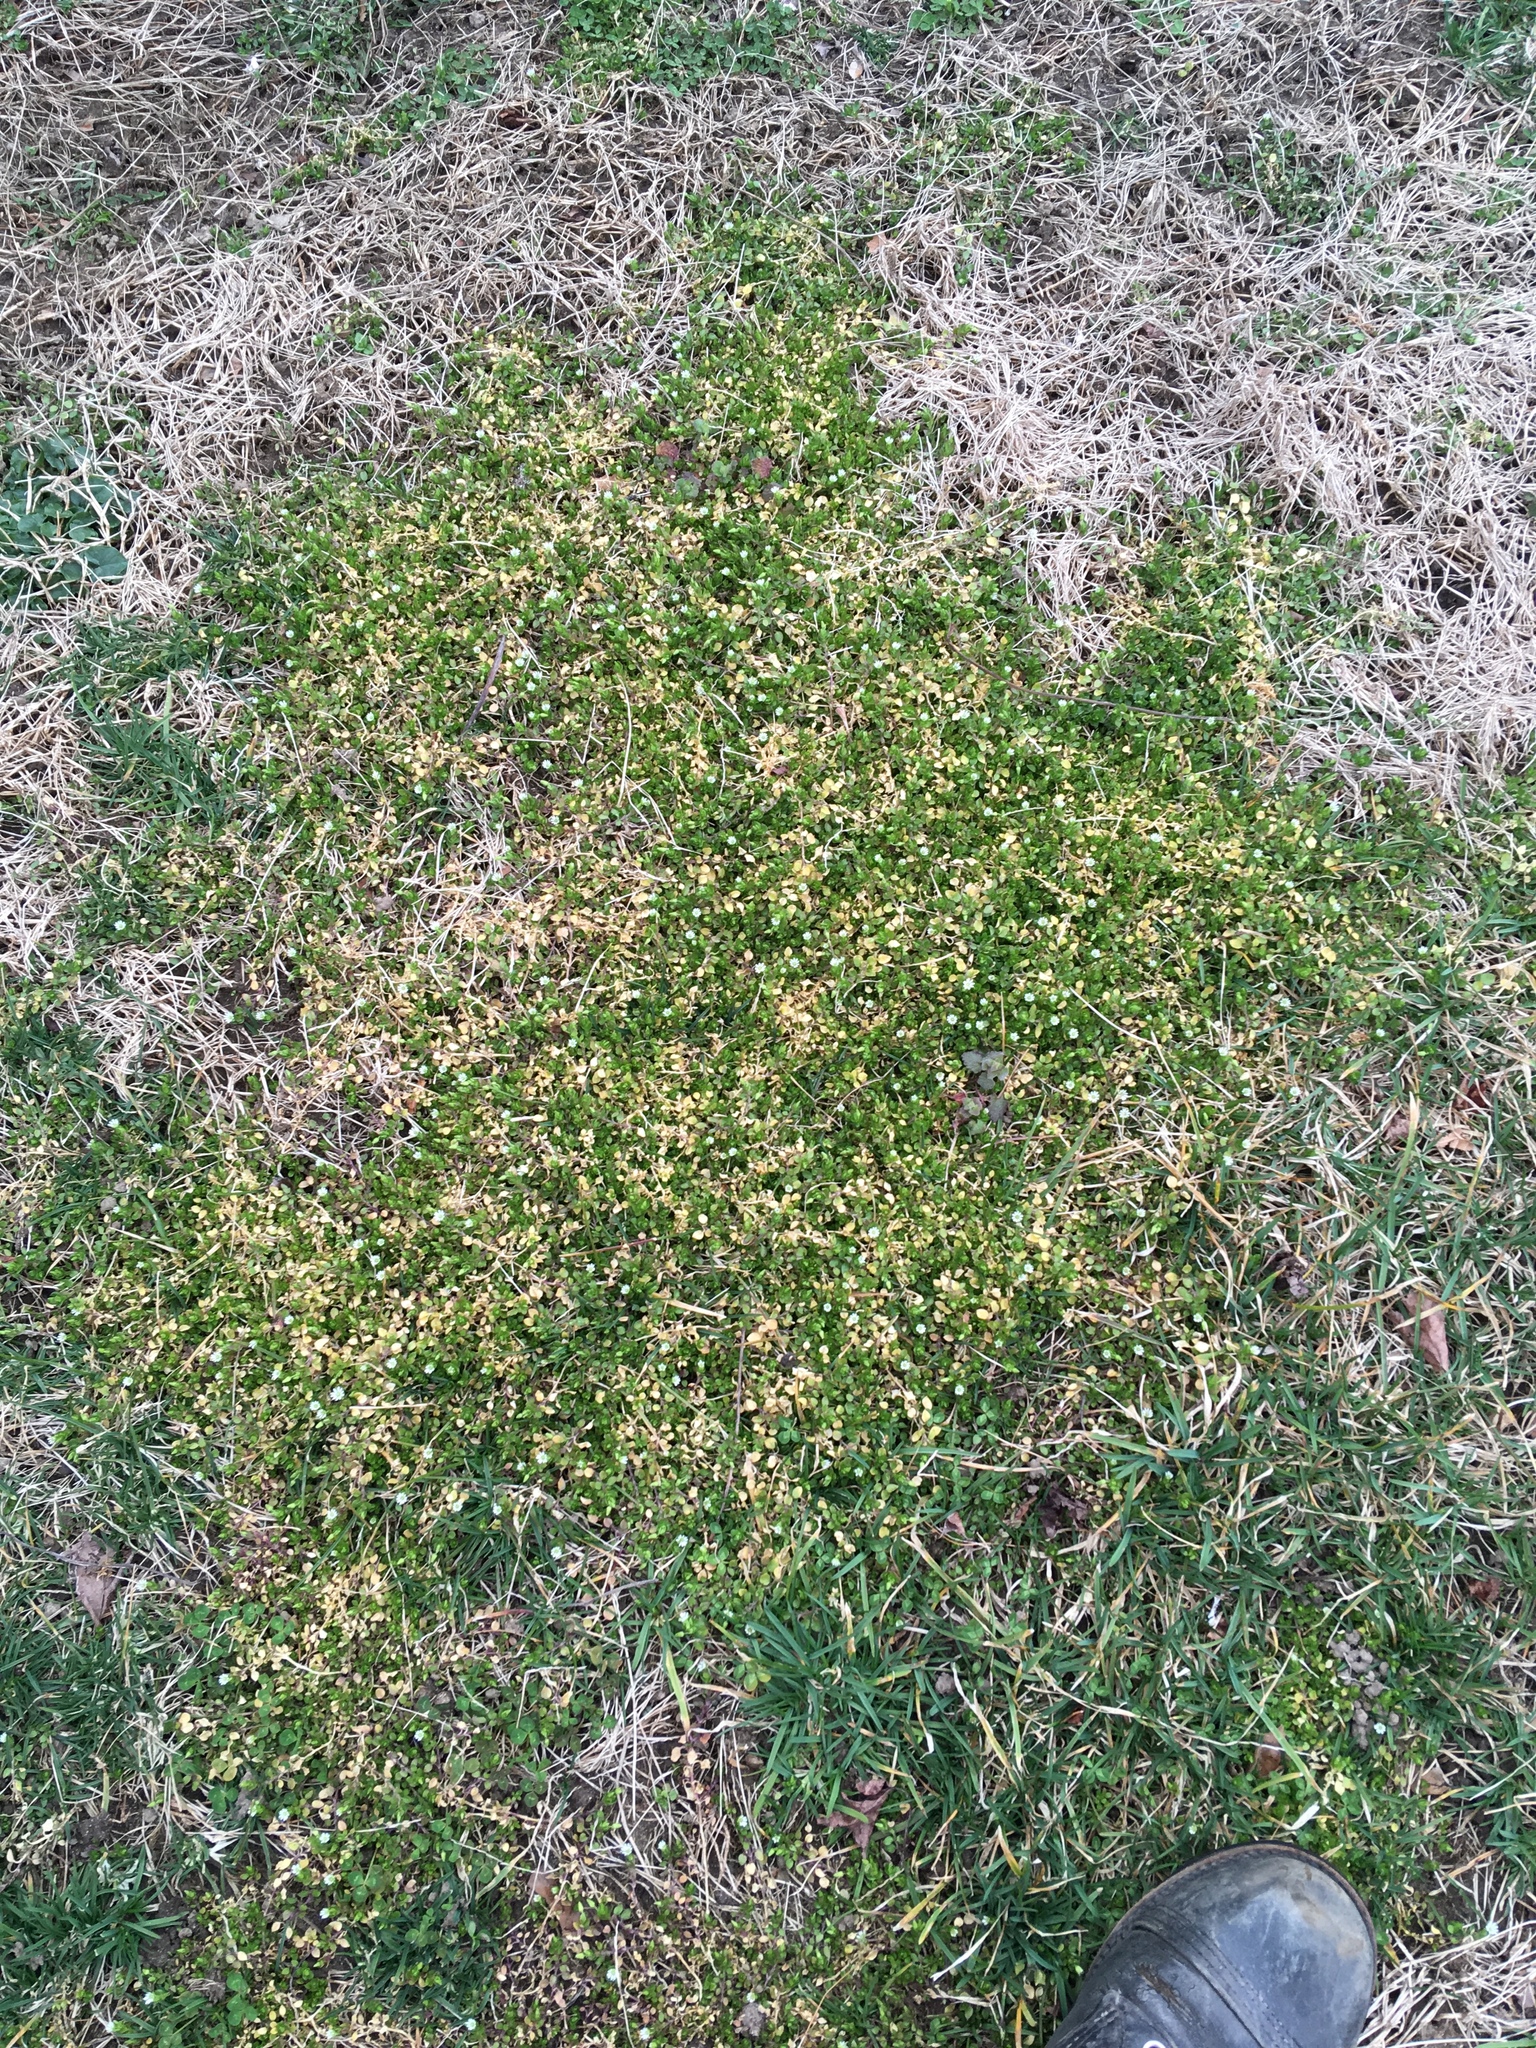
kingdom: Plantae
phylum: Tracheophyta
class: Magnoliopsida
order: Caryophyllales
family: Caryophyllaceae
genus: Stellaria
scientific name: Stellaria media
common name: Common chickweed
